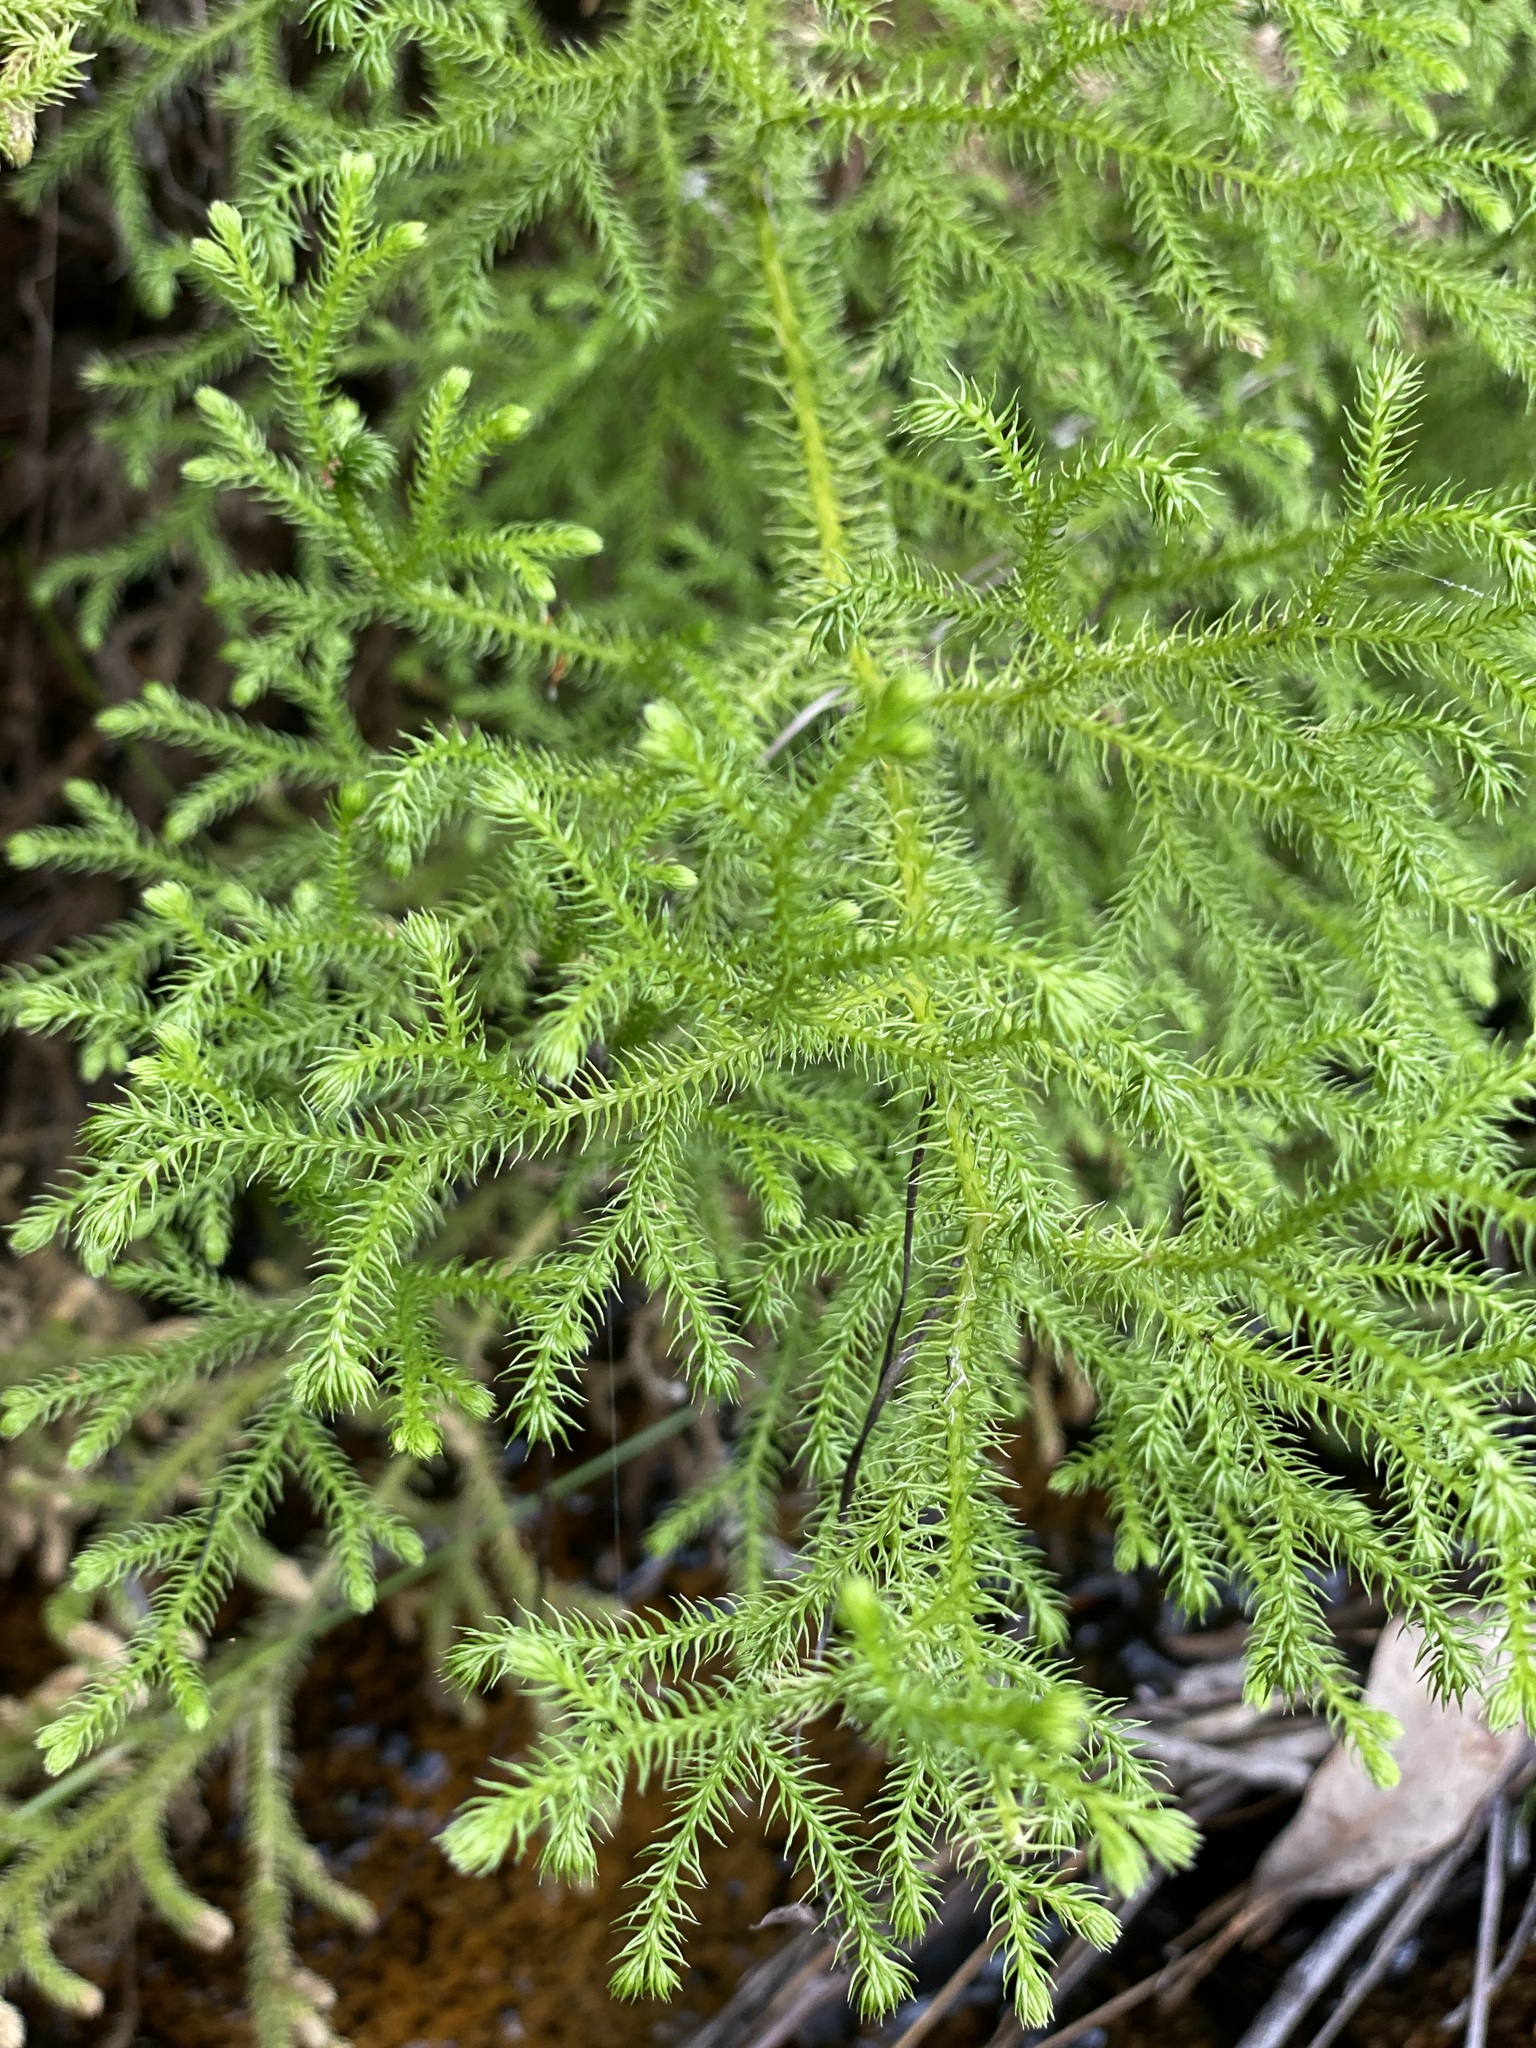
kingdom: Plantae
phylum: Tracheophyta
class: Lycopodiopsida
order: Lycopodiales
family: Lycopodiaceae
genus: Palhinhaea
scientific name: Palhinhaea cernua
